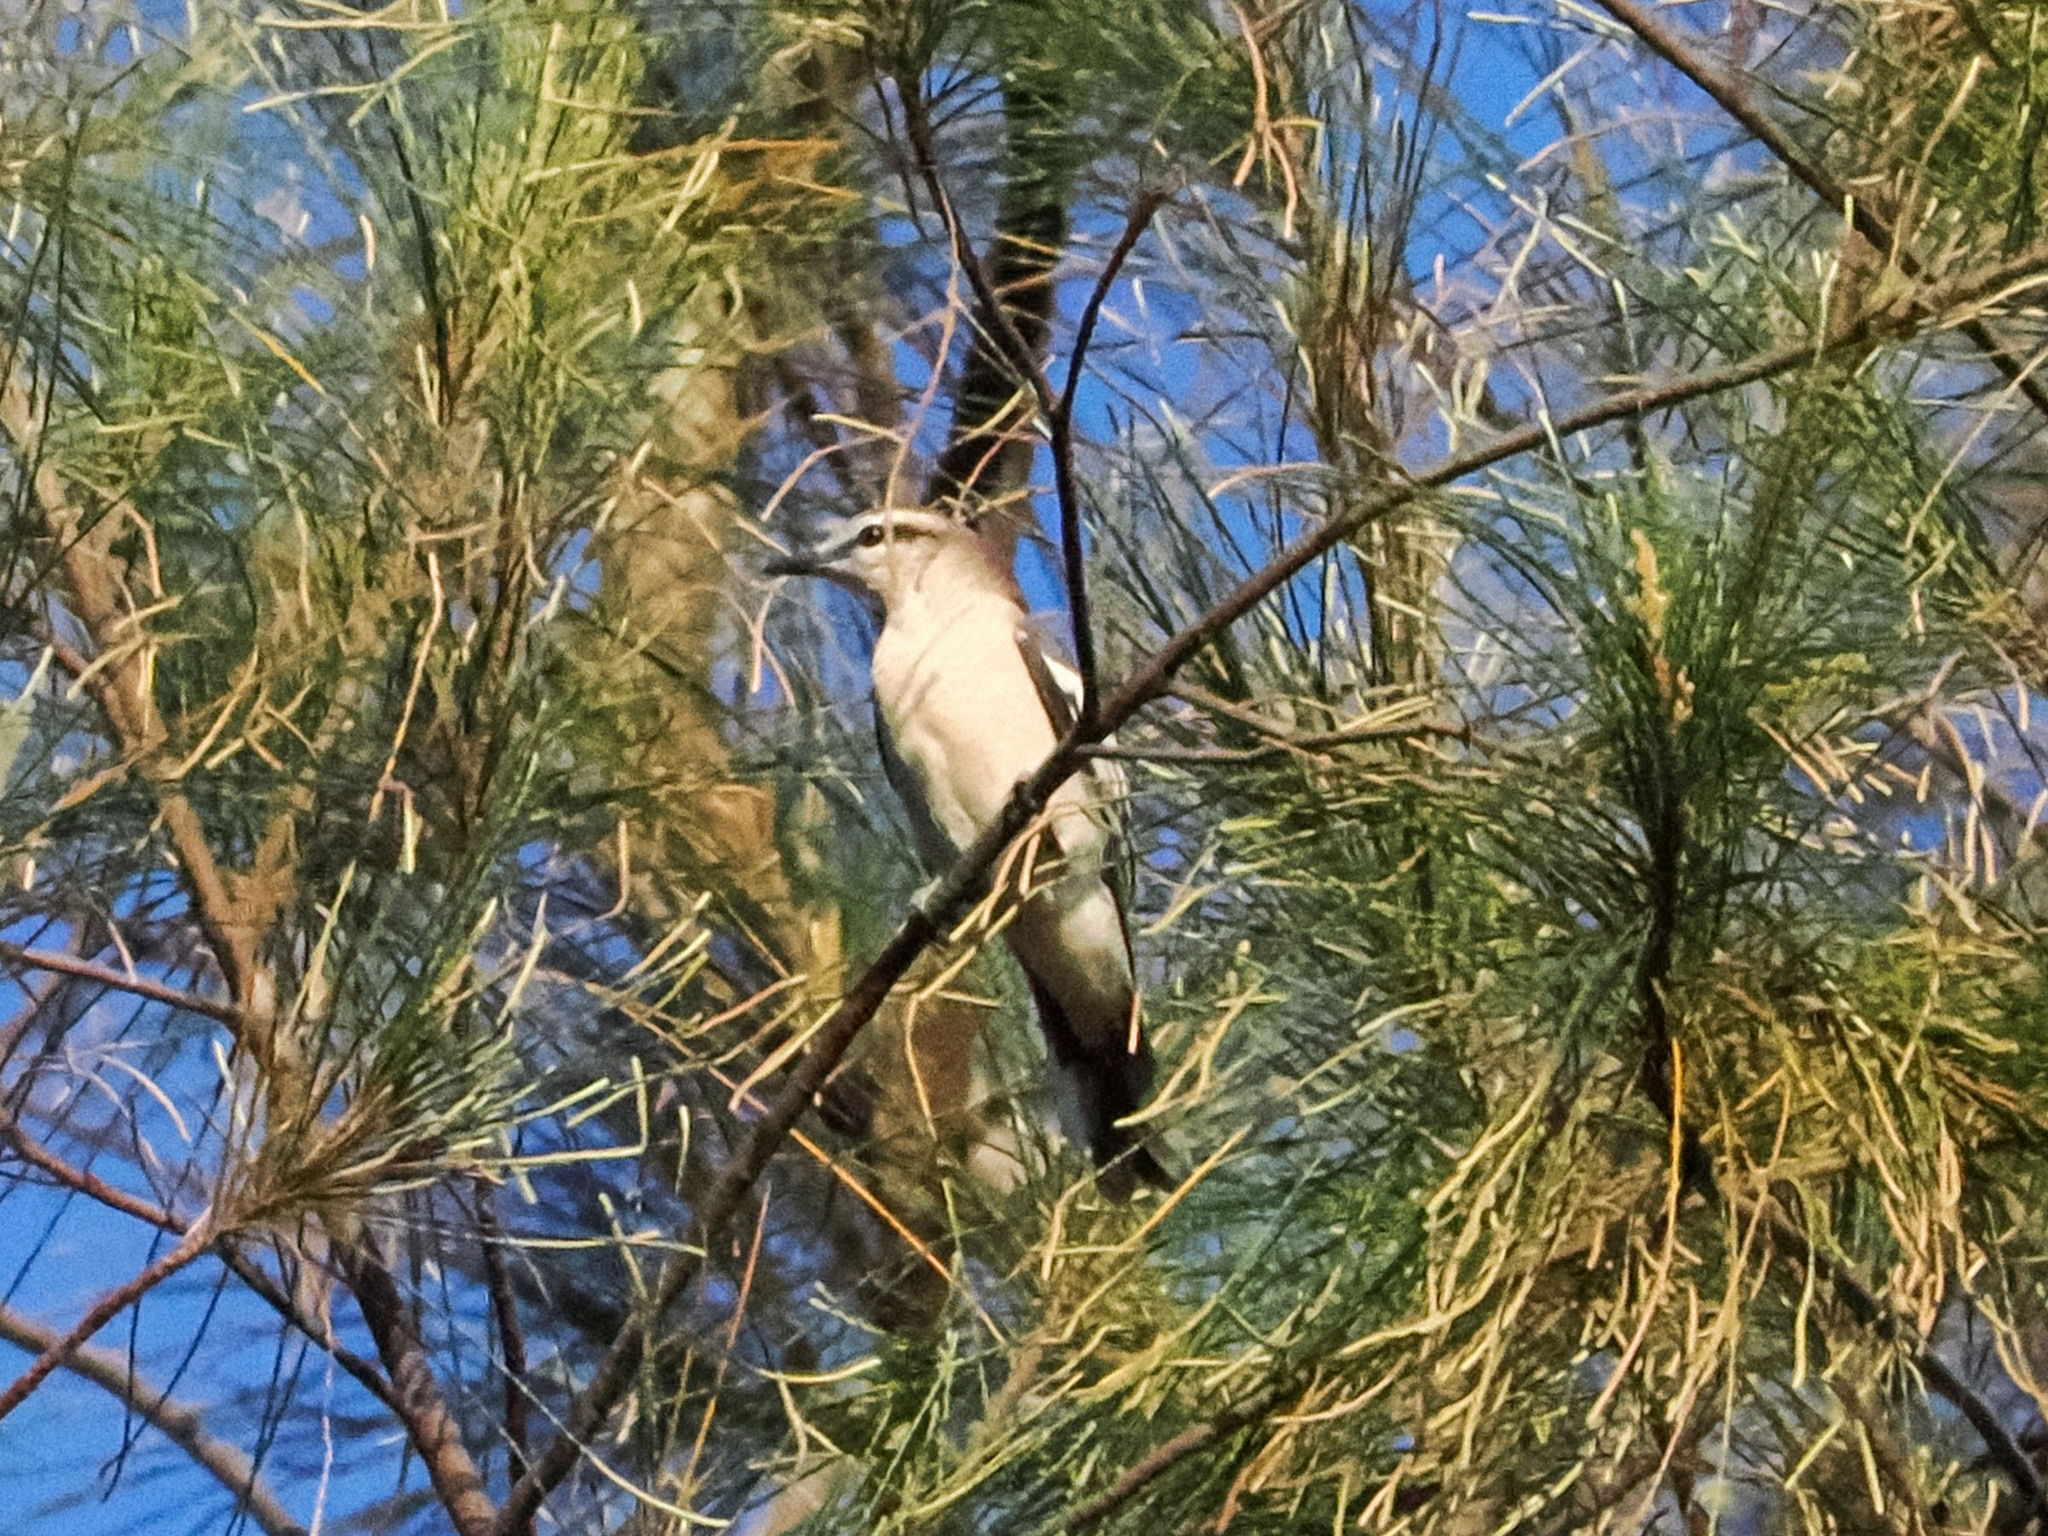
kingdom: Animalia
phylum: Chordata
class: Aves
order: Passeriformes
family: Laniidae
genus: Lanius
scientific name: Lanius cristatus
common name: Brown shrike
